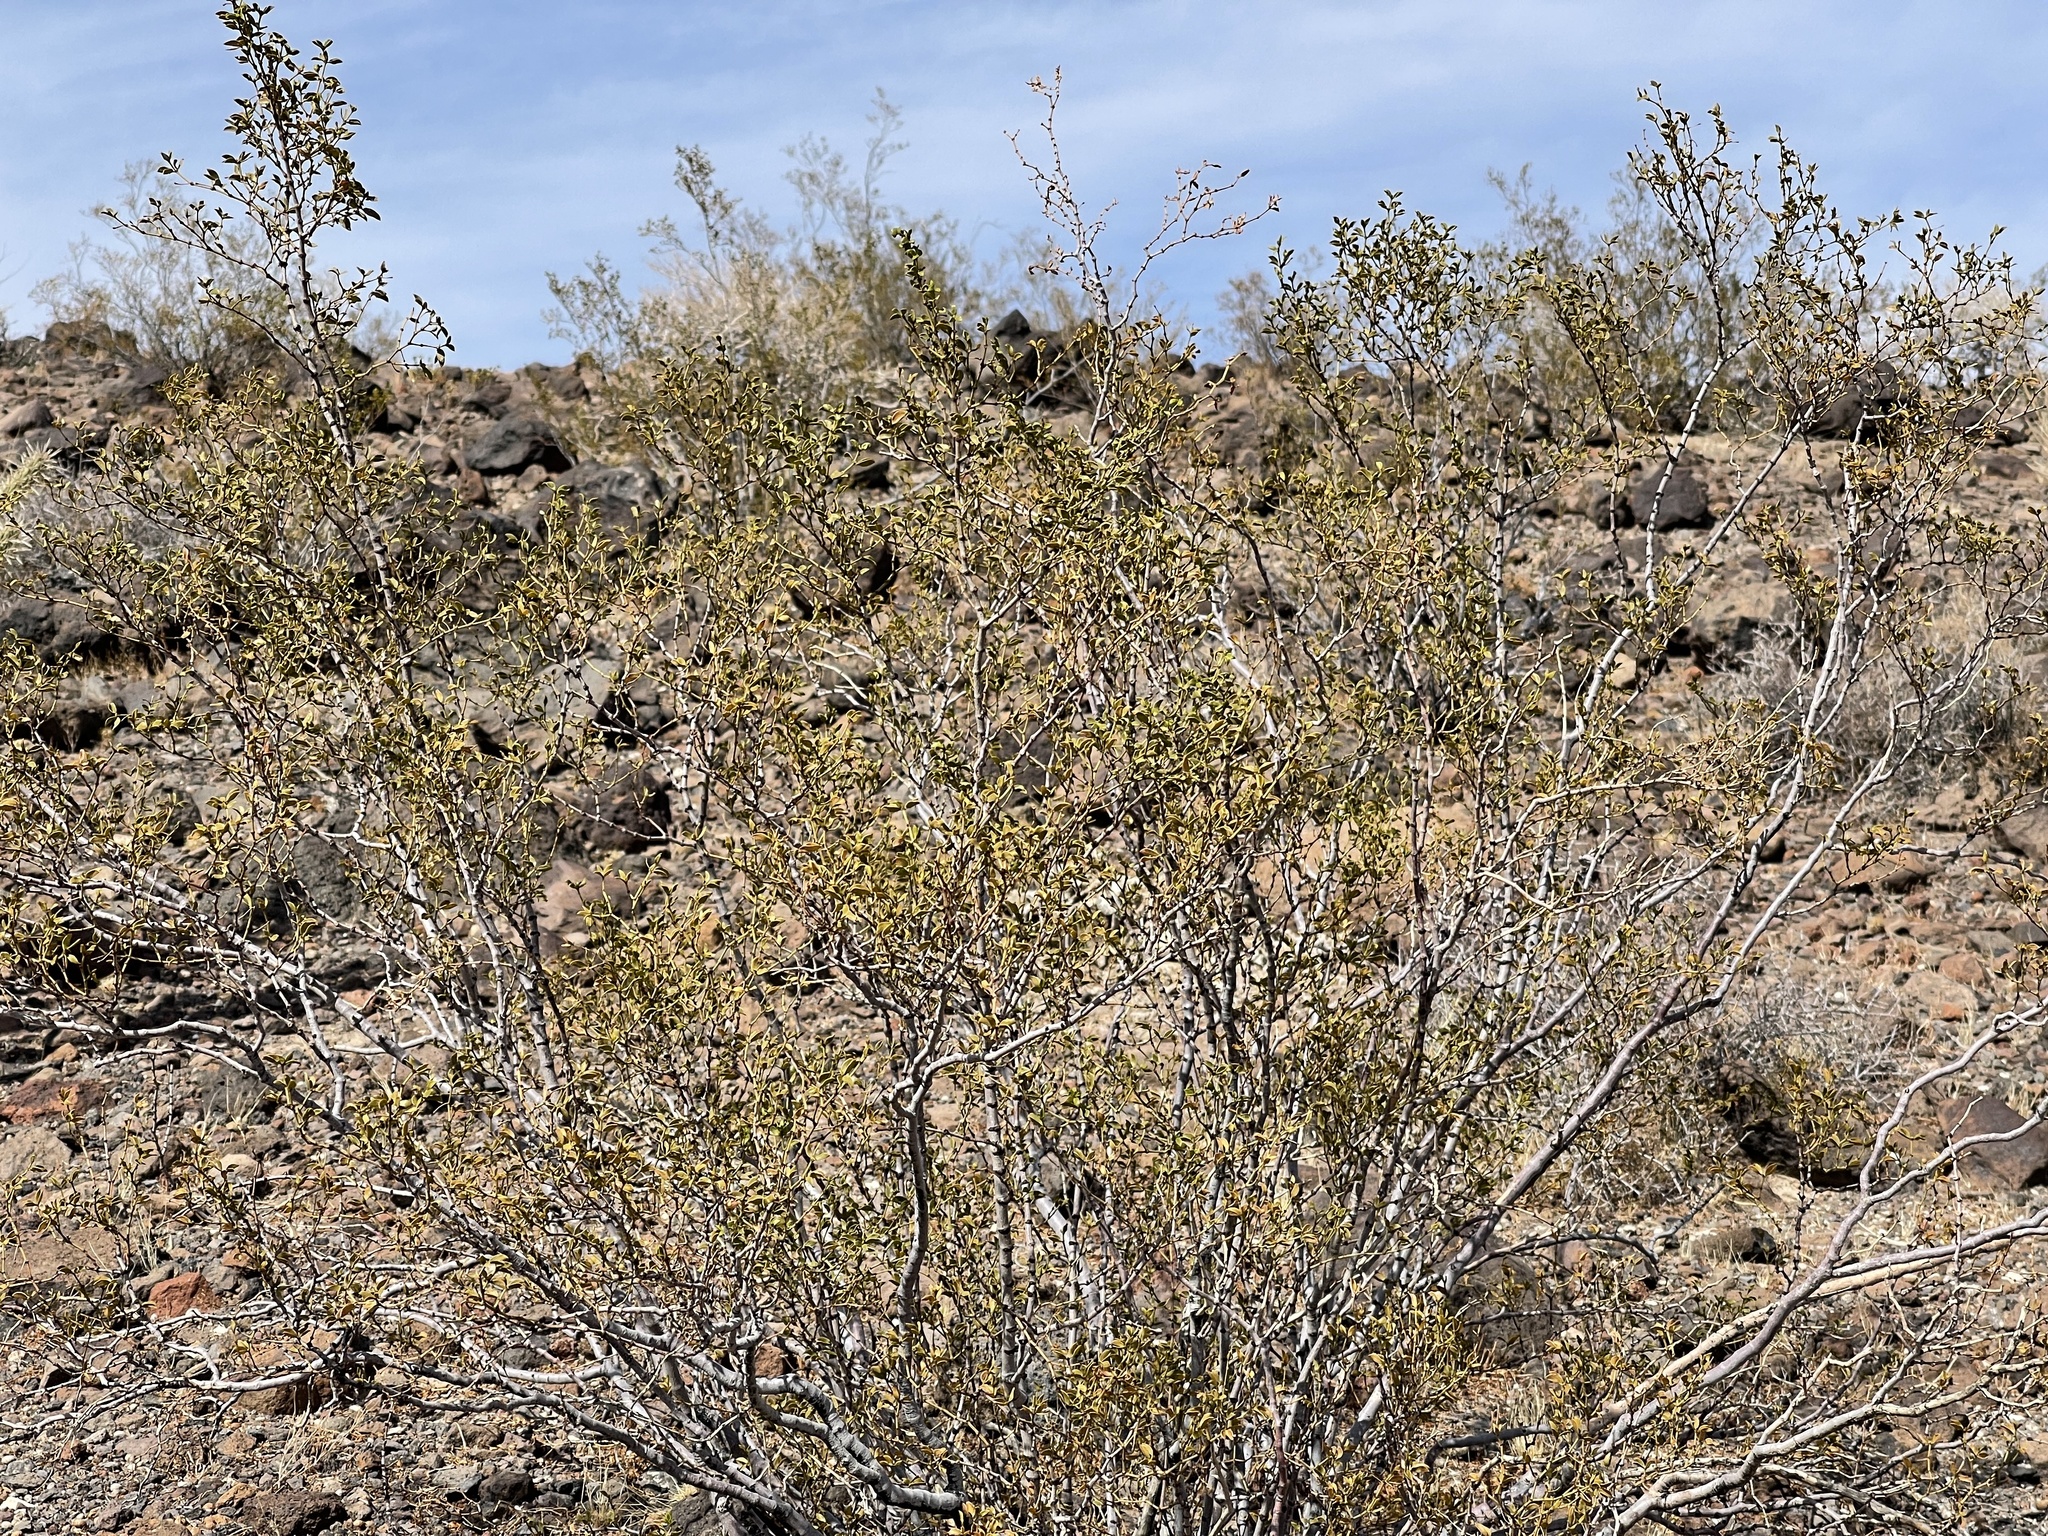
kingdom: Plantae
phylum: Tracheophyta
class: Magnoliopsida
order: Zygophyllales
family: Zygophyllaceae
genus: Larrea
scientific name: Larrea tridentata
